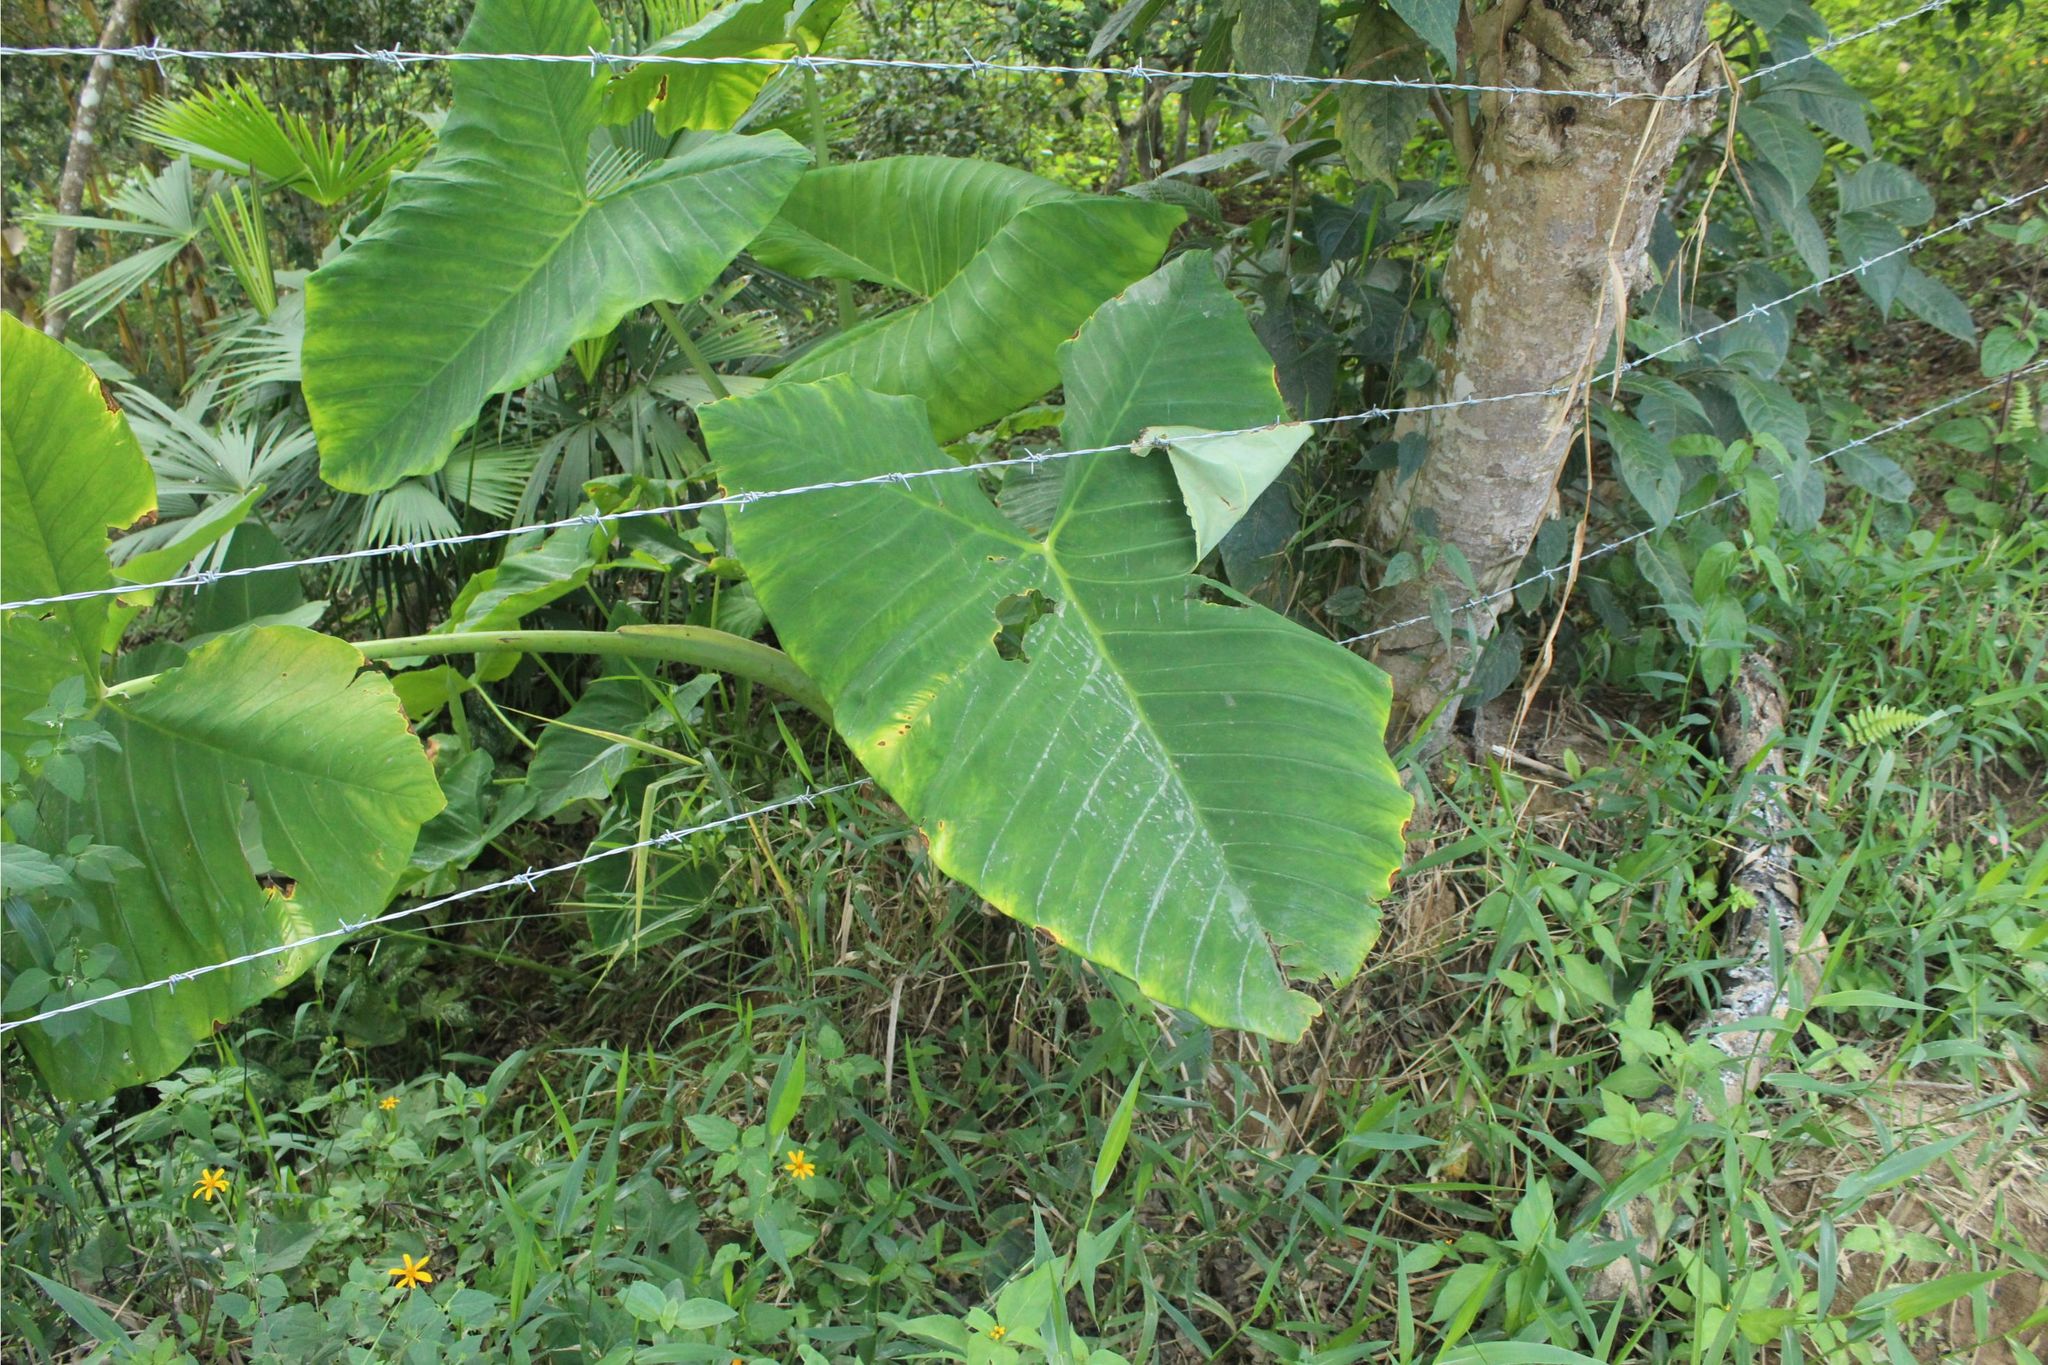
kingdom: Plantae
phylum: Tracheophyta
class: Liliopsida
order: Alismatales
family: Araceae
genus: Xanthosoma
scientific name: Xanthosoma
